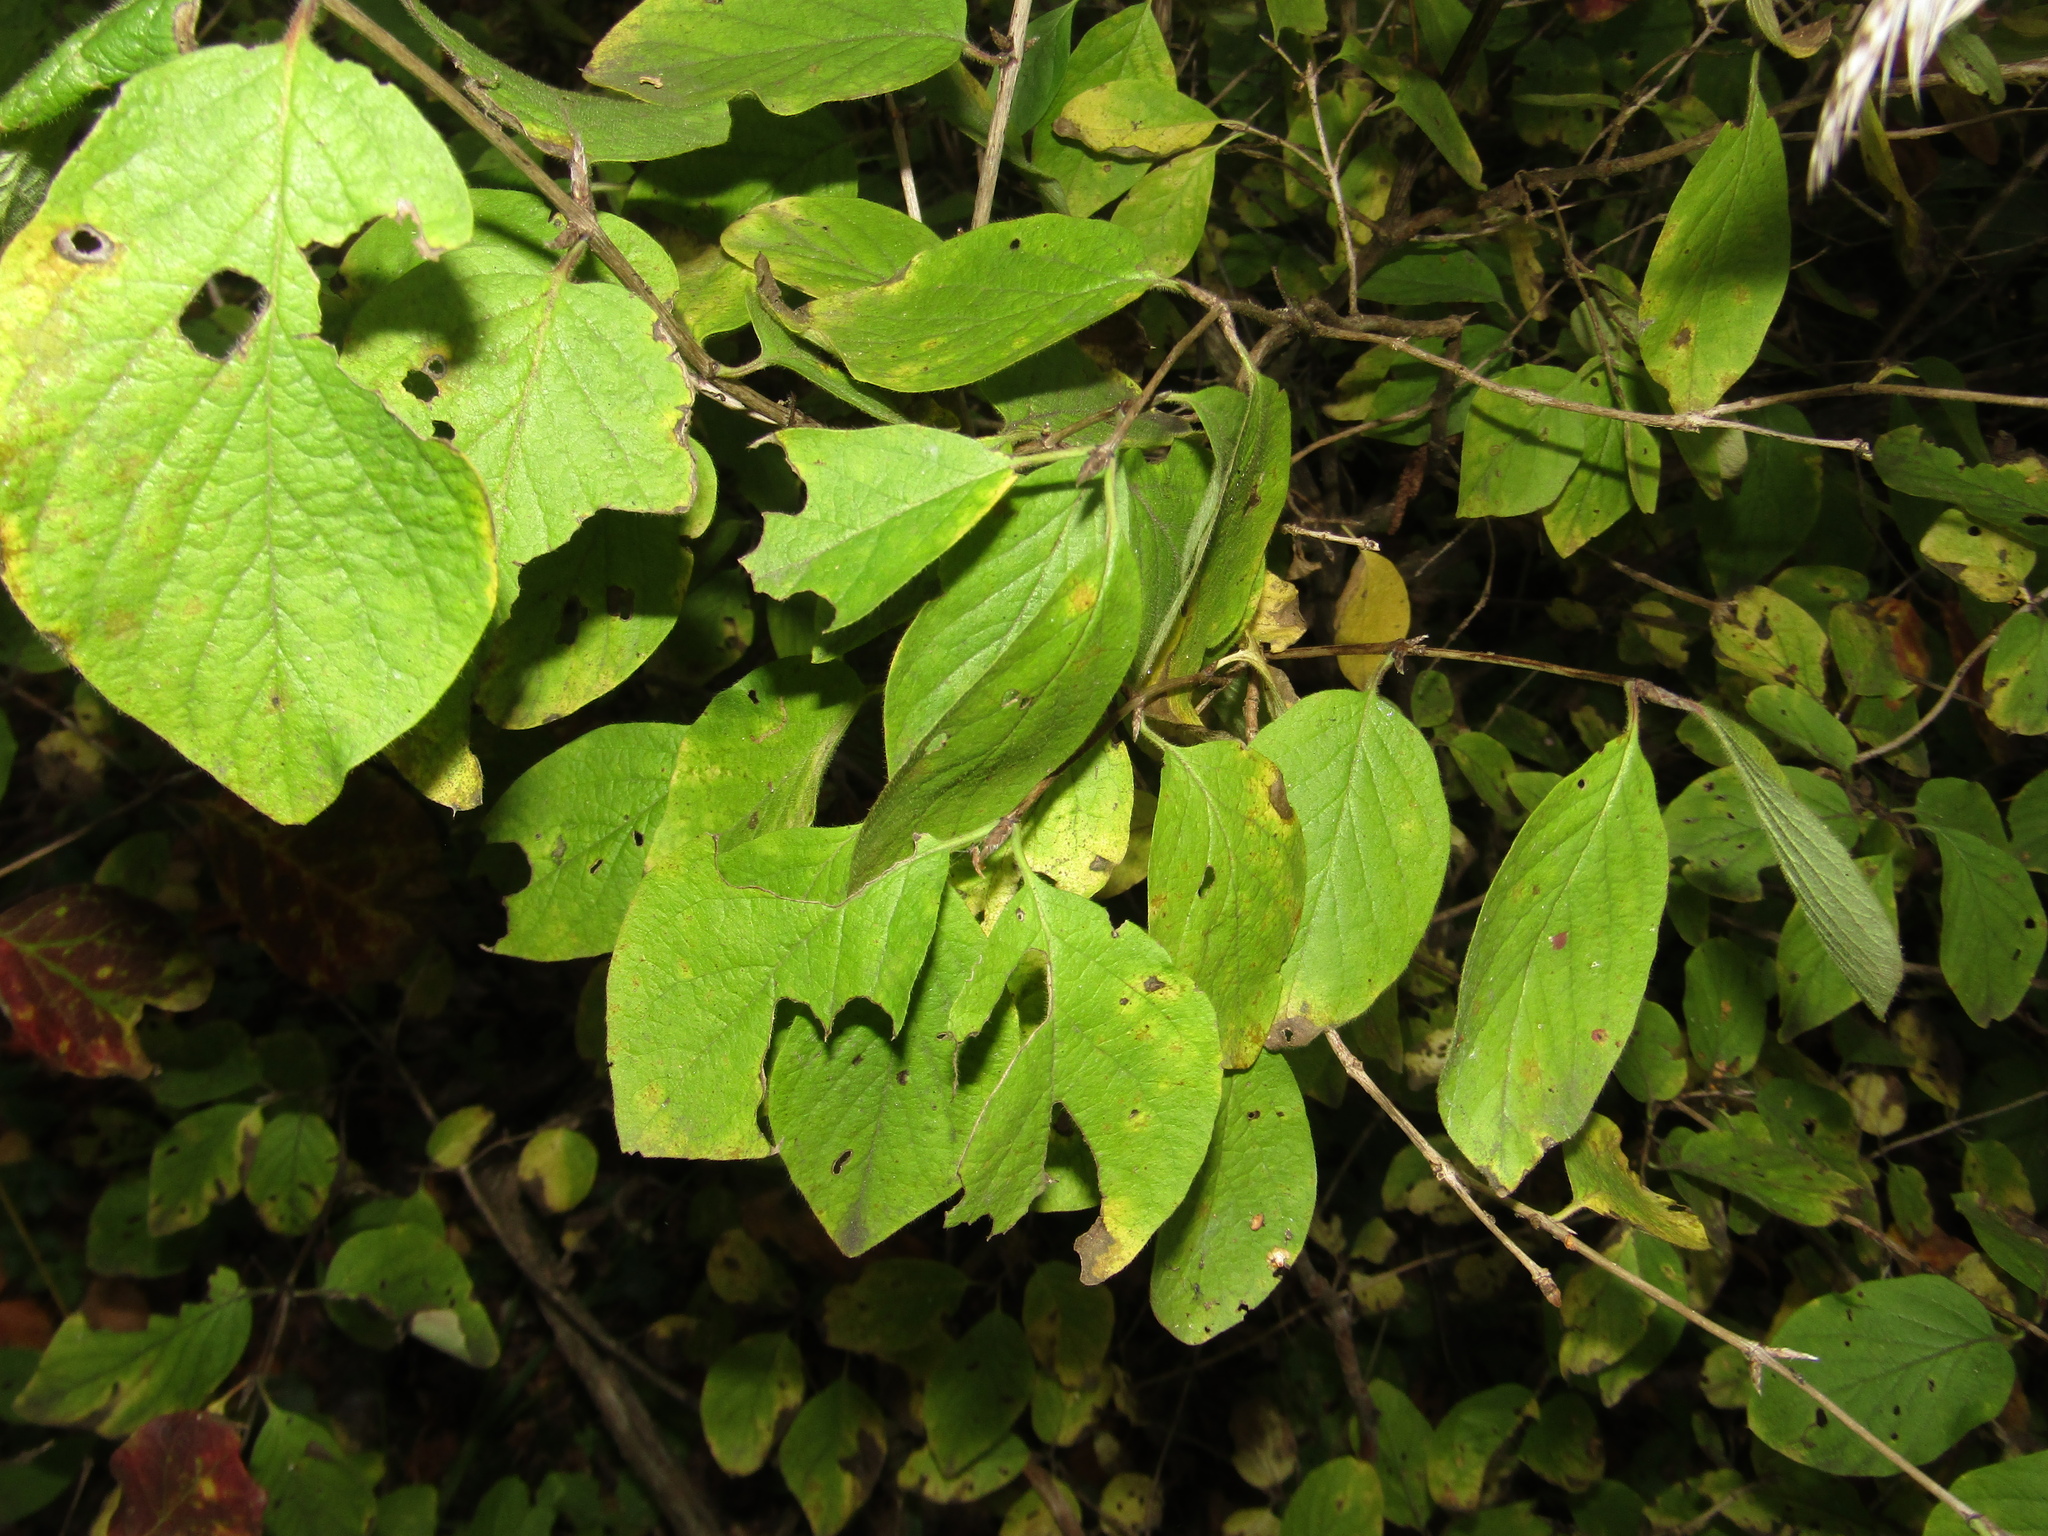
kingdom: Plantae
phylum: Tracheophyta
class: Magnoliopsida
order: Dipsacales
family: Caprifoliaceae
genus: Lonicera
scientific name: Lonicera xylosteum
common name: Fly honeysuckle
